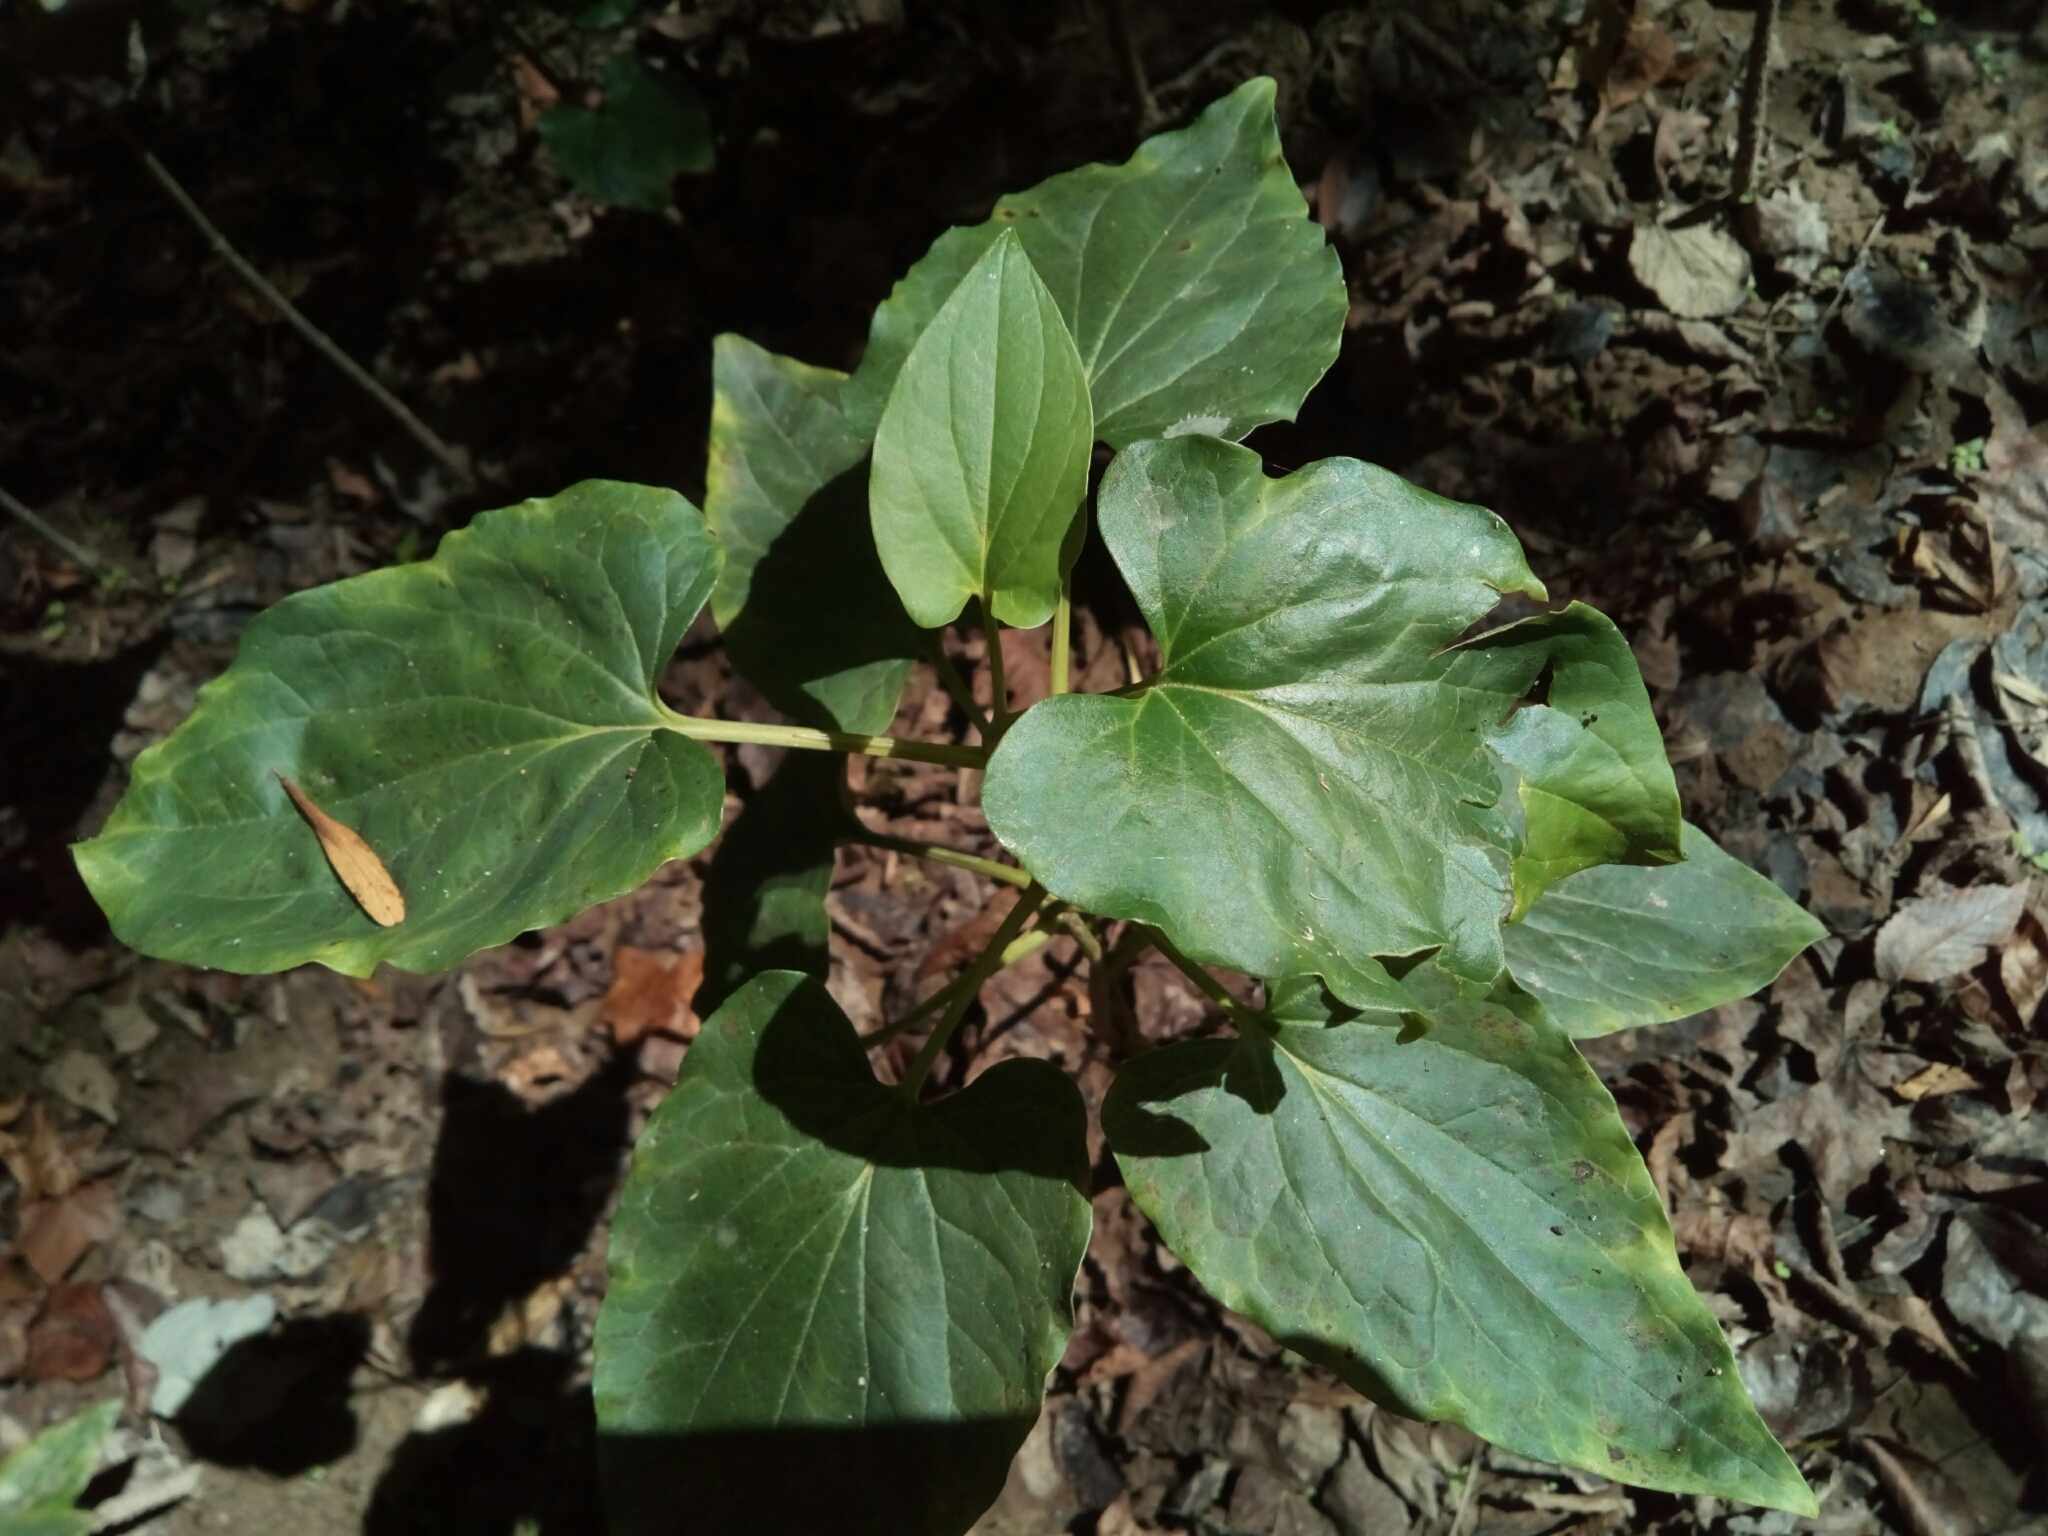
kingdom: Plantae
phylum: Tracheophyta
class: Magnoliopsida
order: Piperales
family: Saururaceae
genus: Saururus
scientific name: Saururus cernuus
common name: Lizard's-tail
